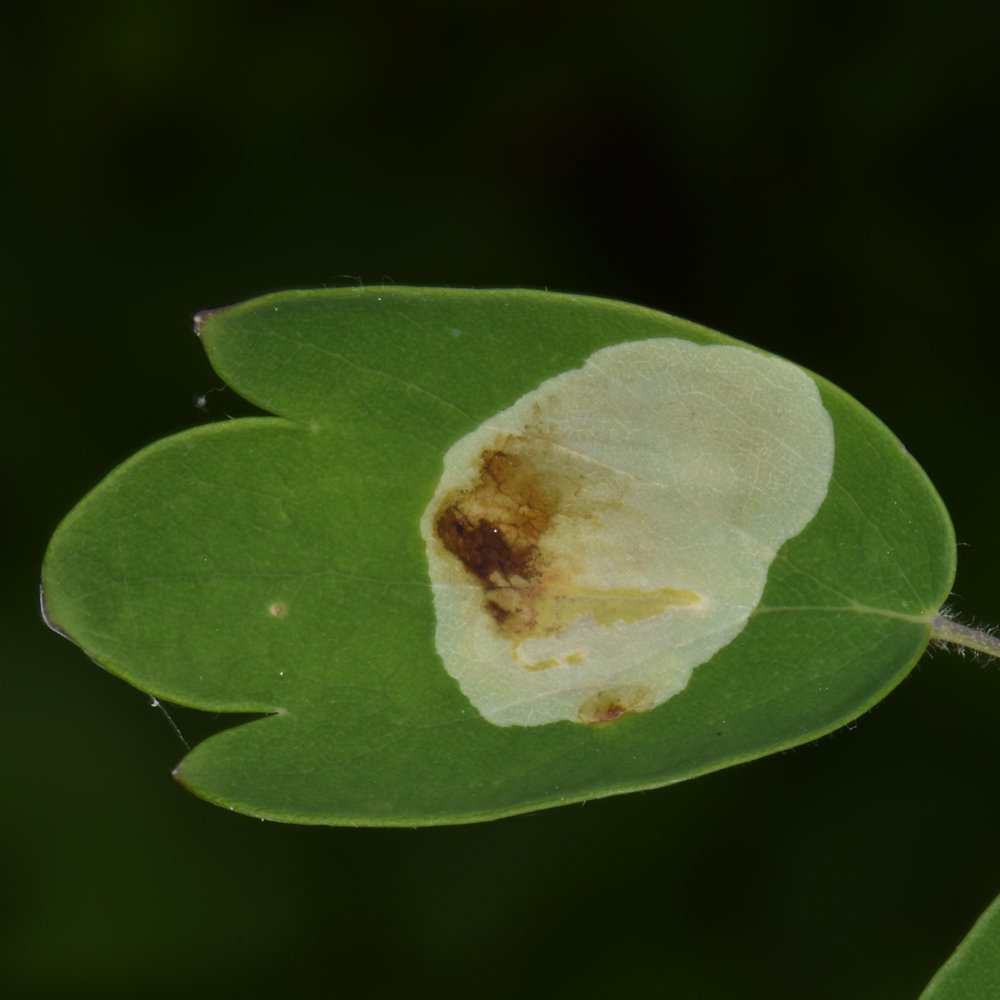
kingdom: Animalia
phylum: Arthropoda
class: Insecta
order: Diptera
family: Agromyzidae
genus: Phytomyza
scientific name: Phytomyza plumiseta
